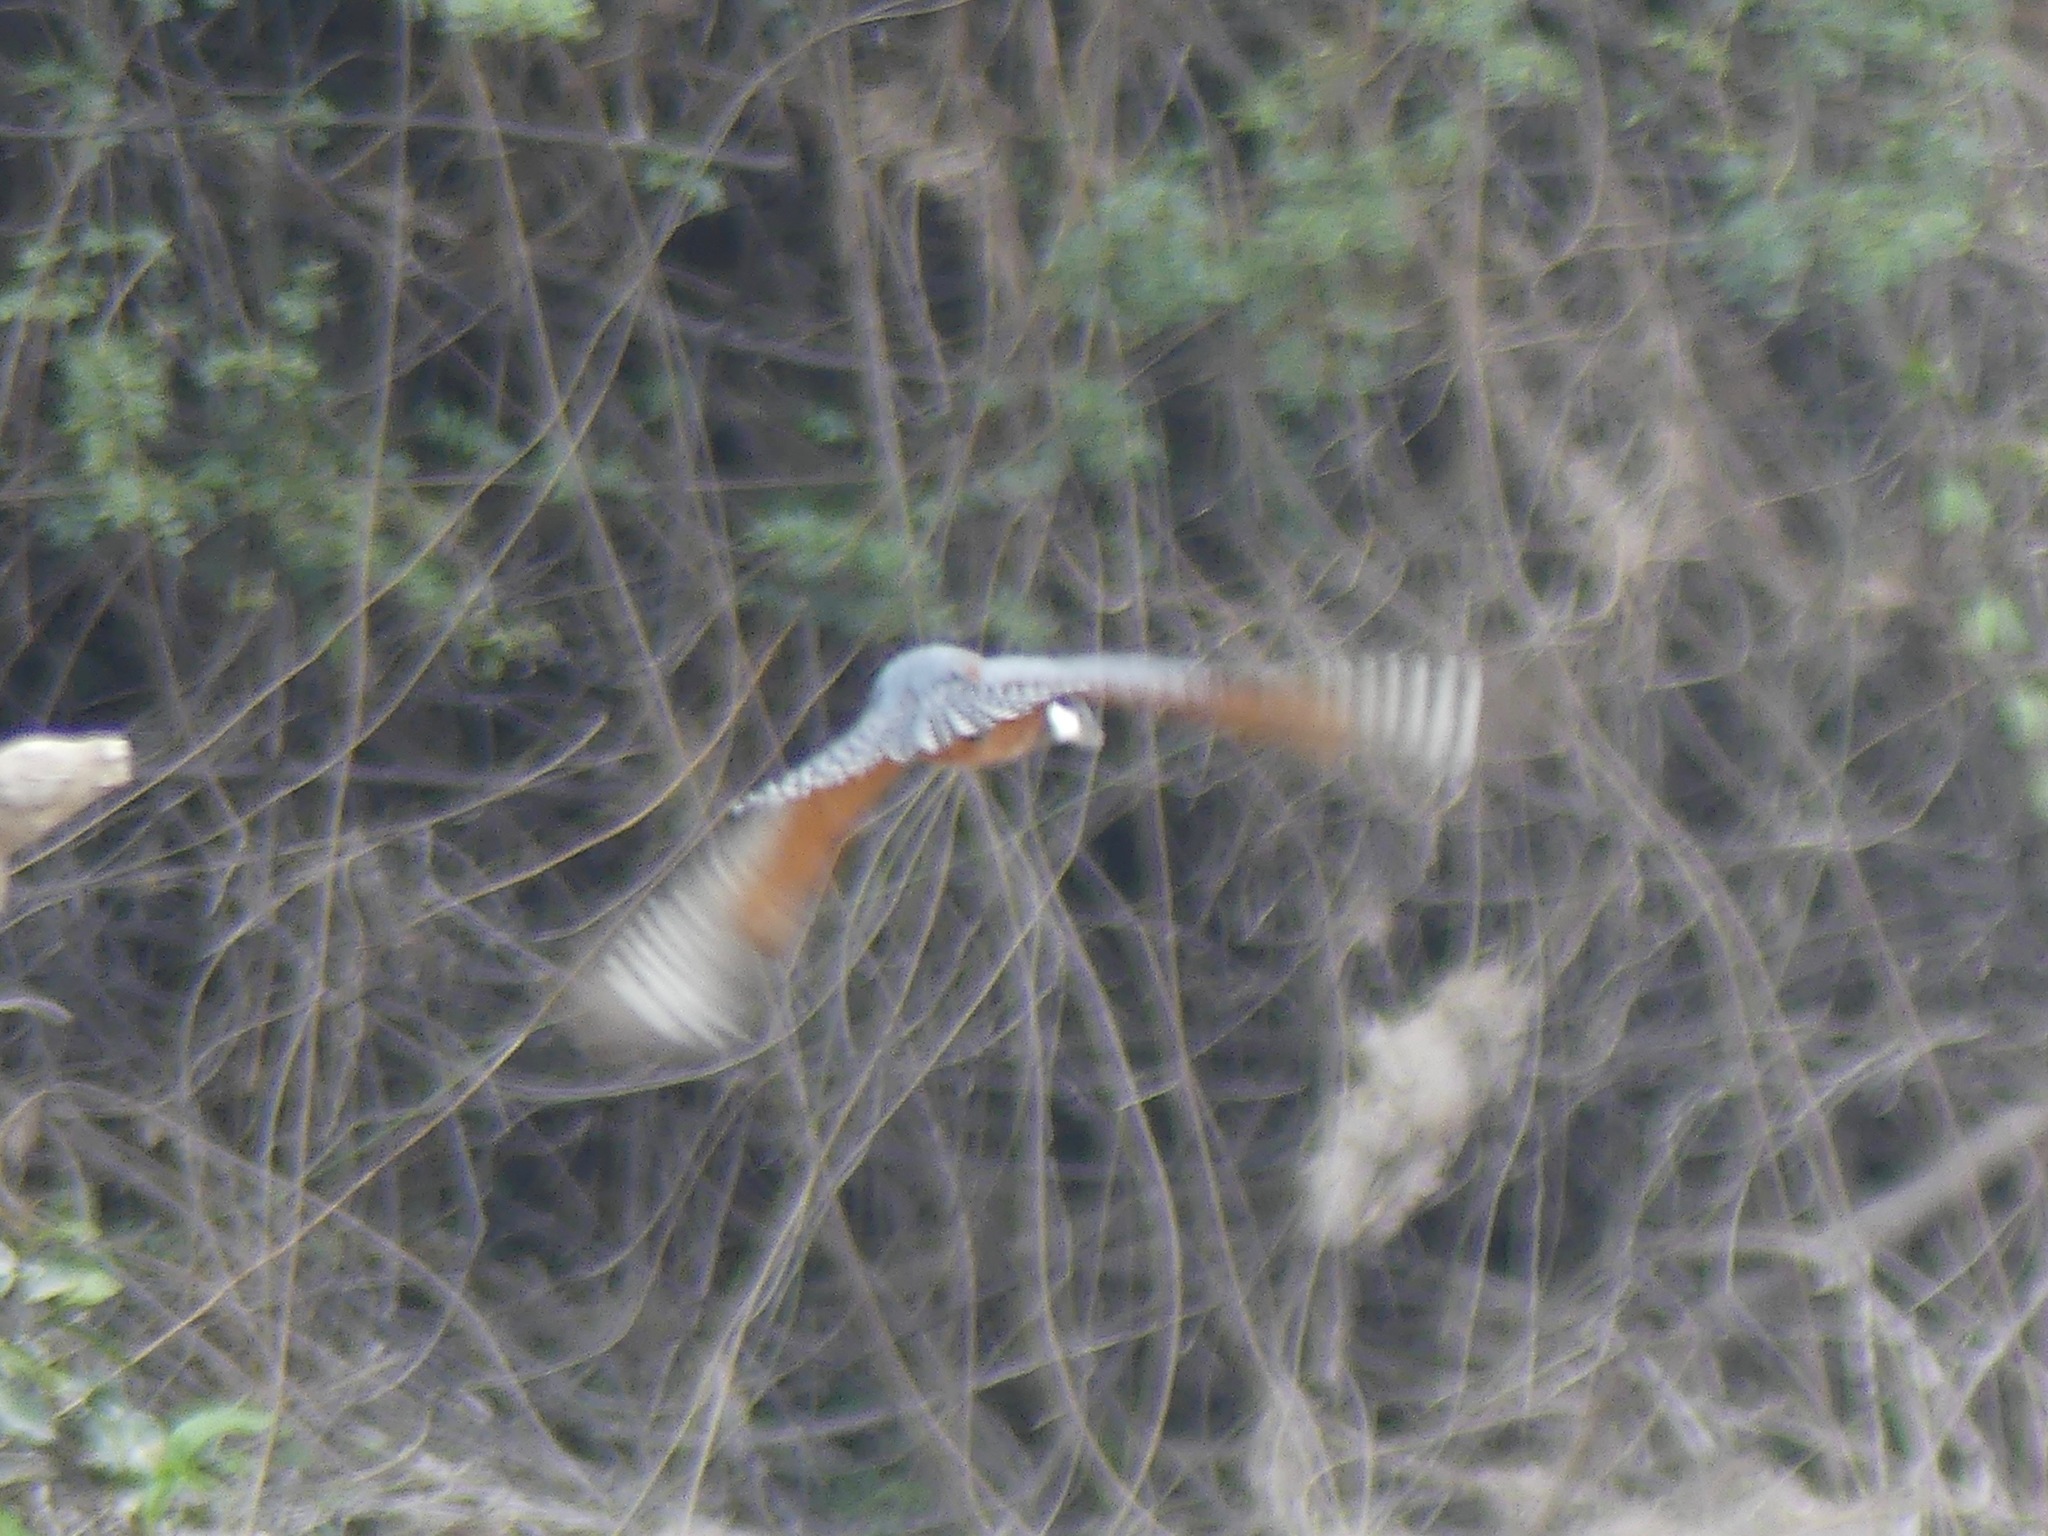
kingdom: Animalia
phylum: Chordata
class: Aves
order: Coraciiformes
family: Alcedinidae
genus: Megaceryle
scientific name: Megaceryle torquata
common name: Ringed kingfisher
